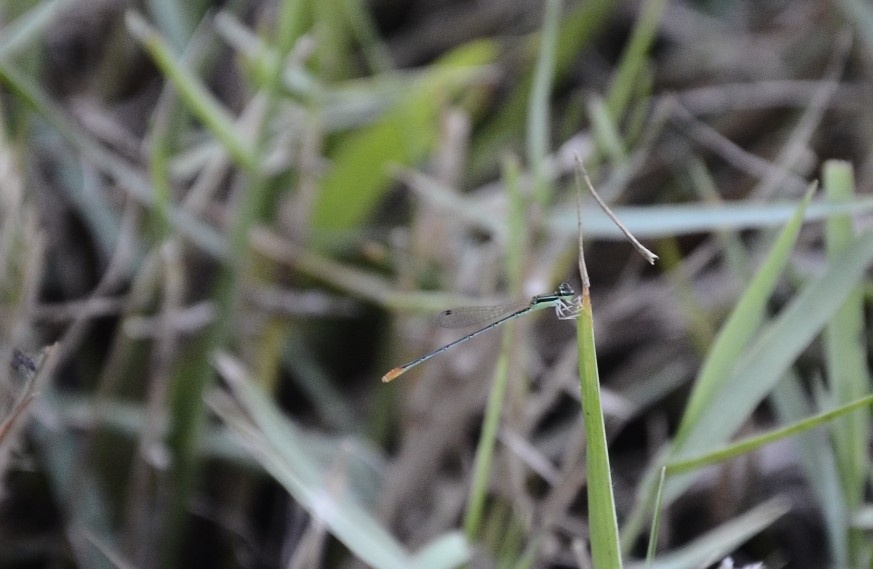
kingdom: Animalia
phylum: Arthropoda
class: Insecta
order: Odonata
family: Coenagrionidae
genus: Agriocnemis
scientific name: Agriocnemis pygmaea
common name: Pygmy wisp
